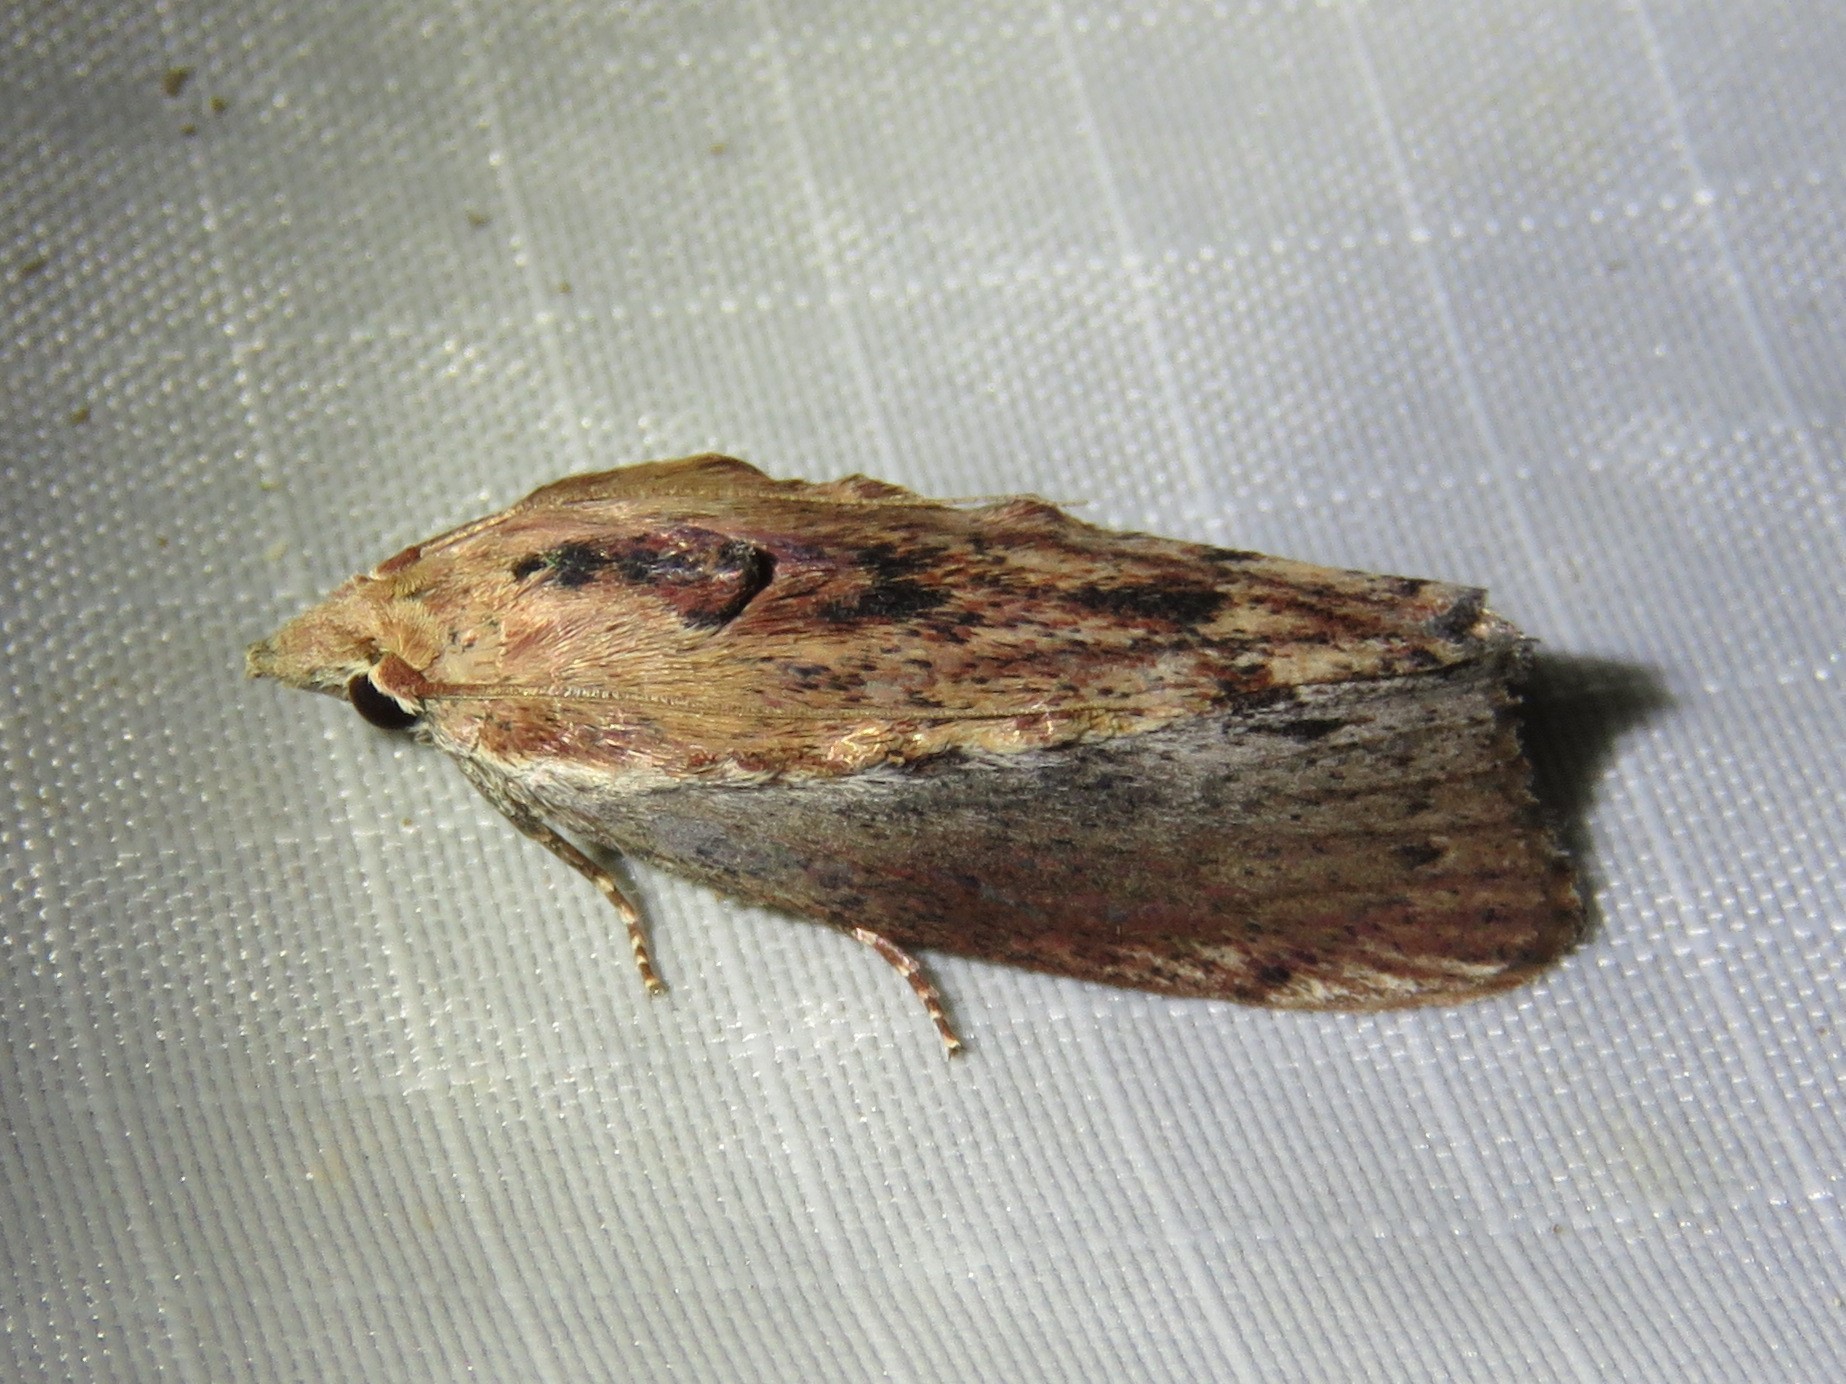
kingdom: Animalia
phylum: Arthropoda
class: Insecta
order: Lepidoptera
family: Pyralidae
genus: Galleria
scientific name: Galleria mellonella
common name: Greater wax moth
